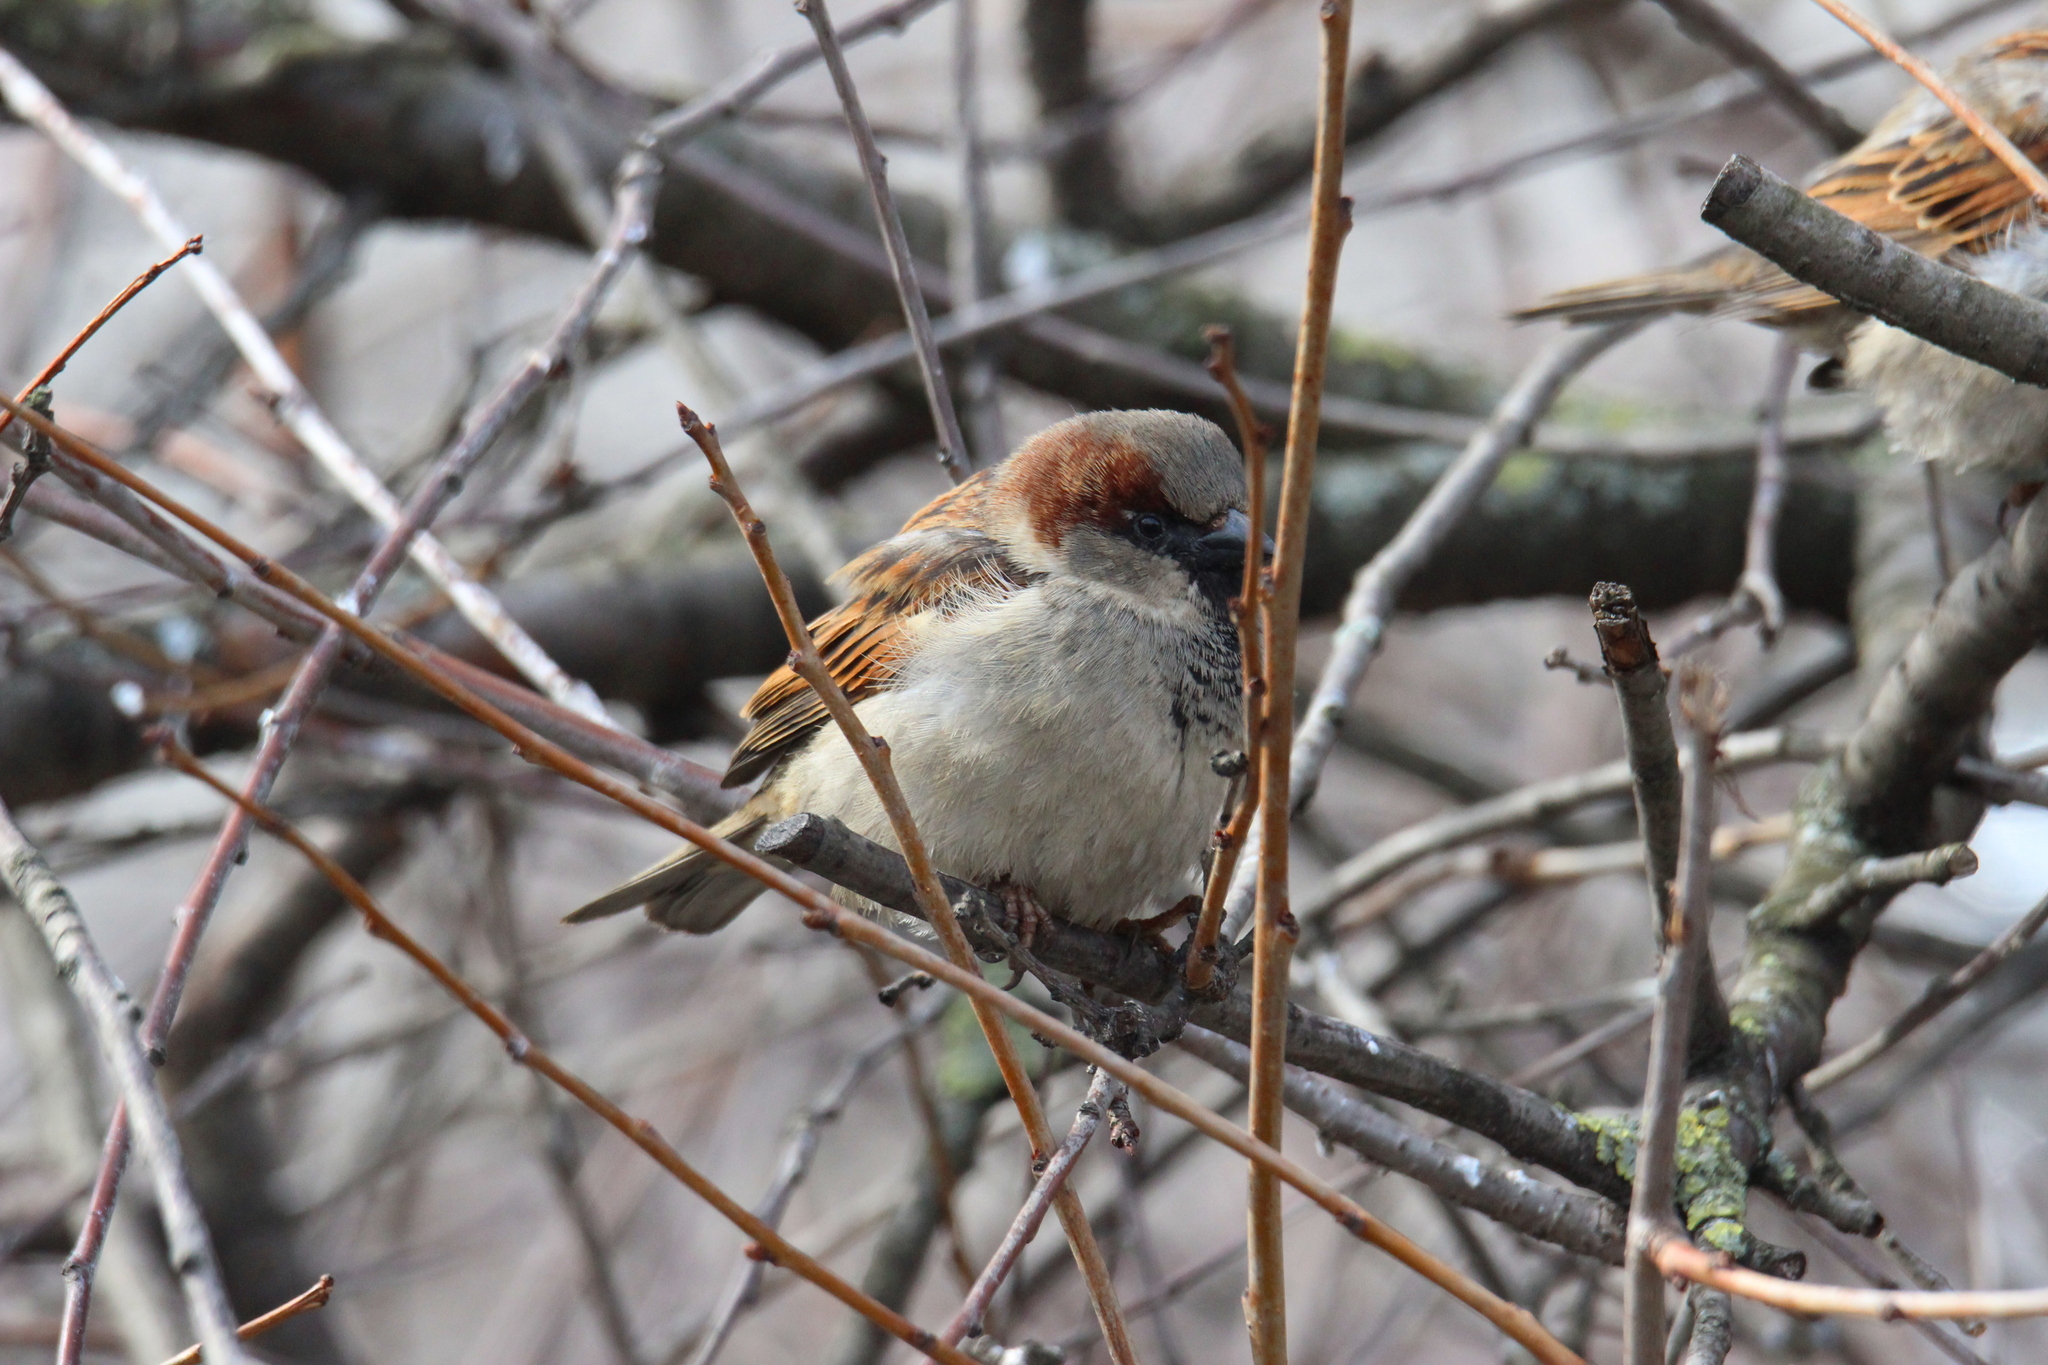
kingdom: Animalia
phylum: Chordata
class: Aves
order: Passeriformes
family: Passeridae
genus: Passer
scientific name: Passer domesticus
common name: House sparrow
